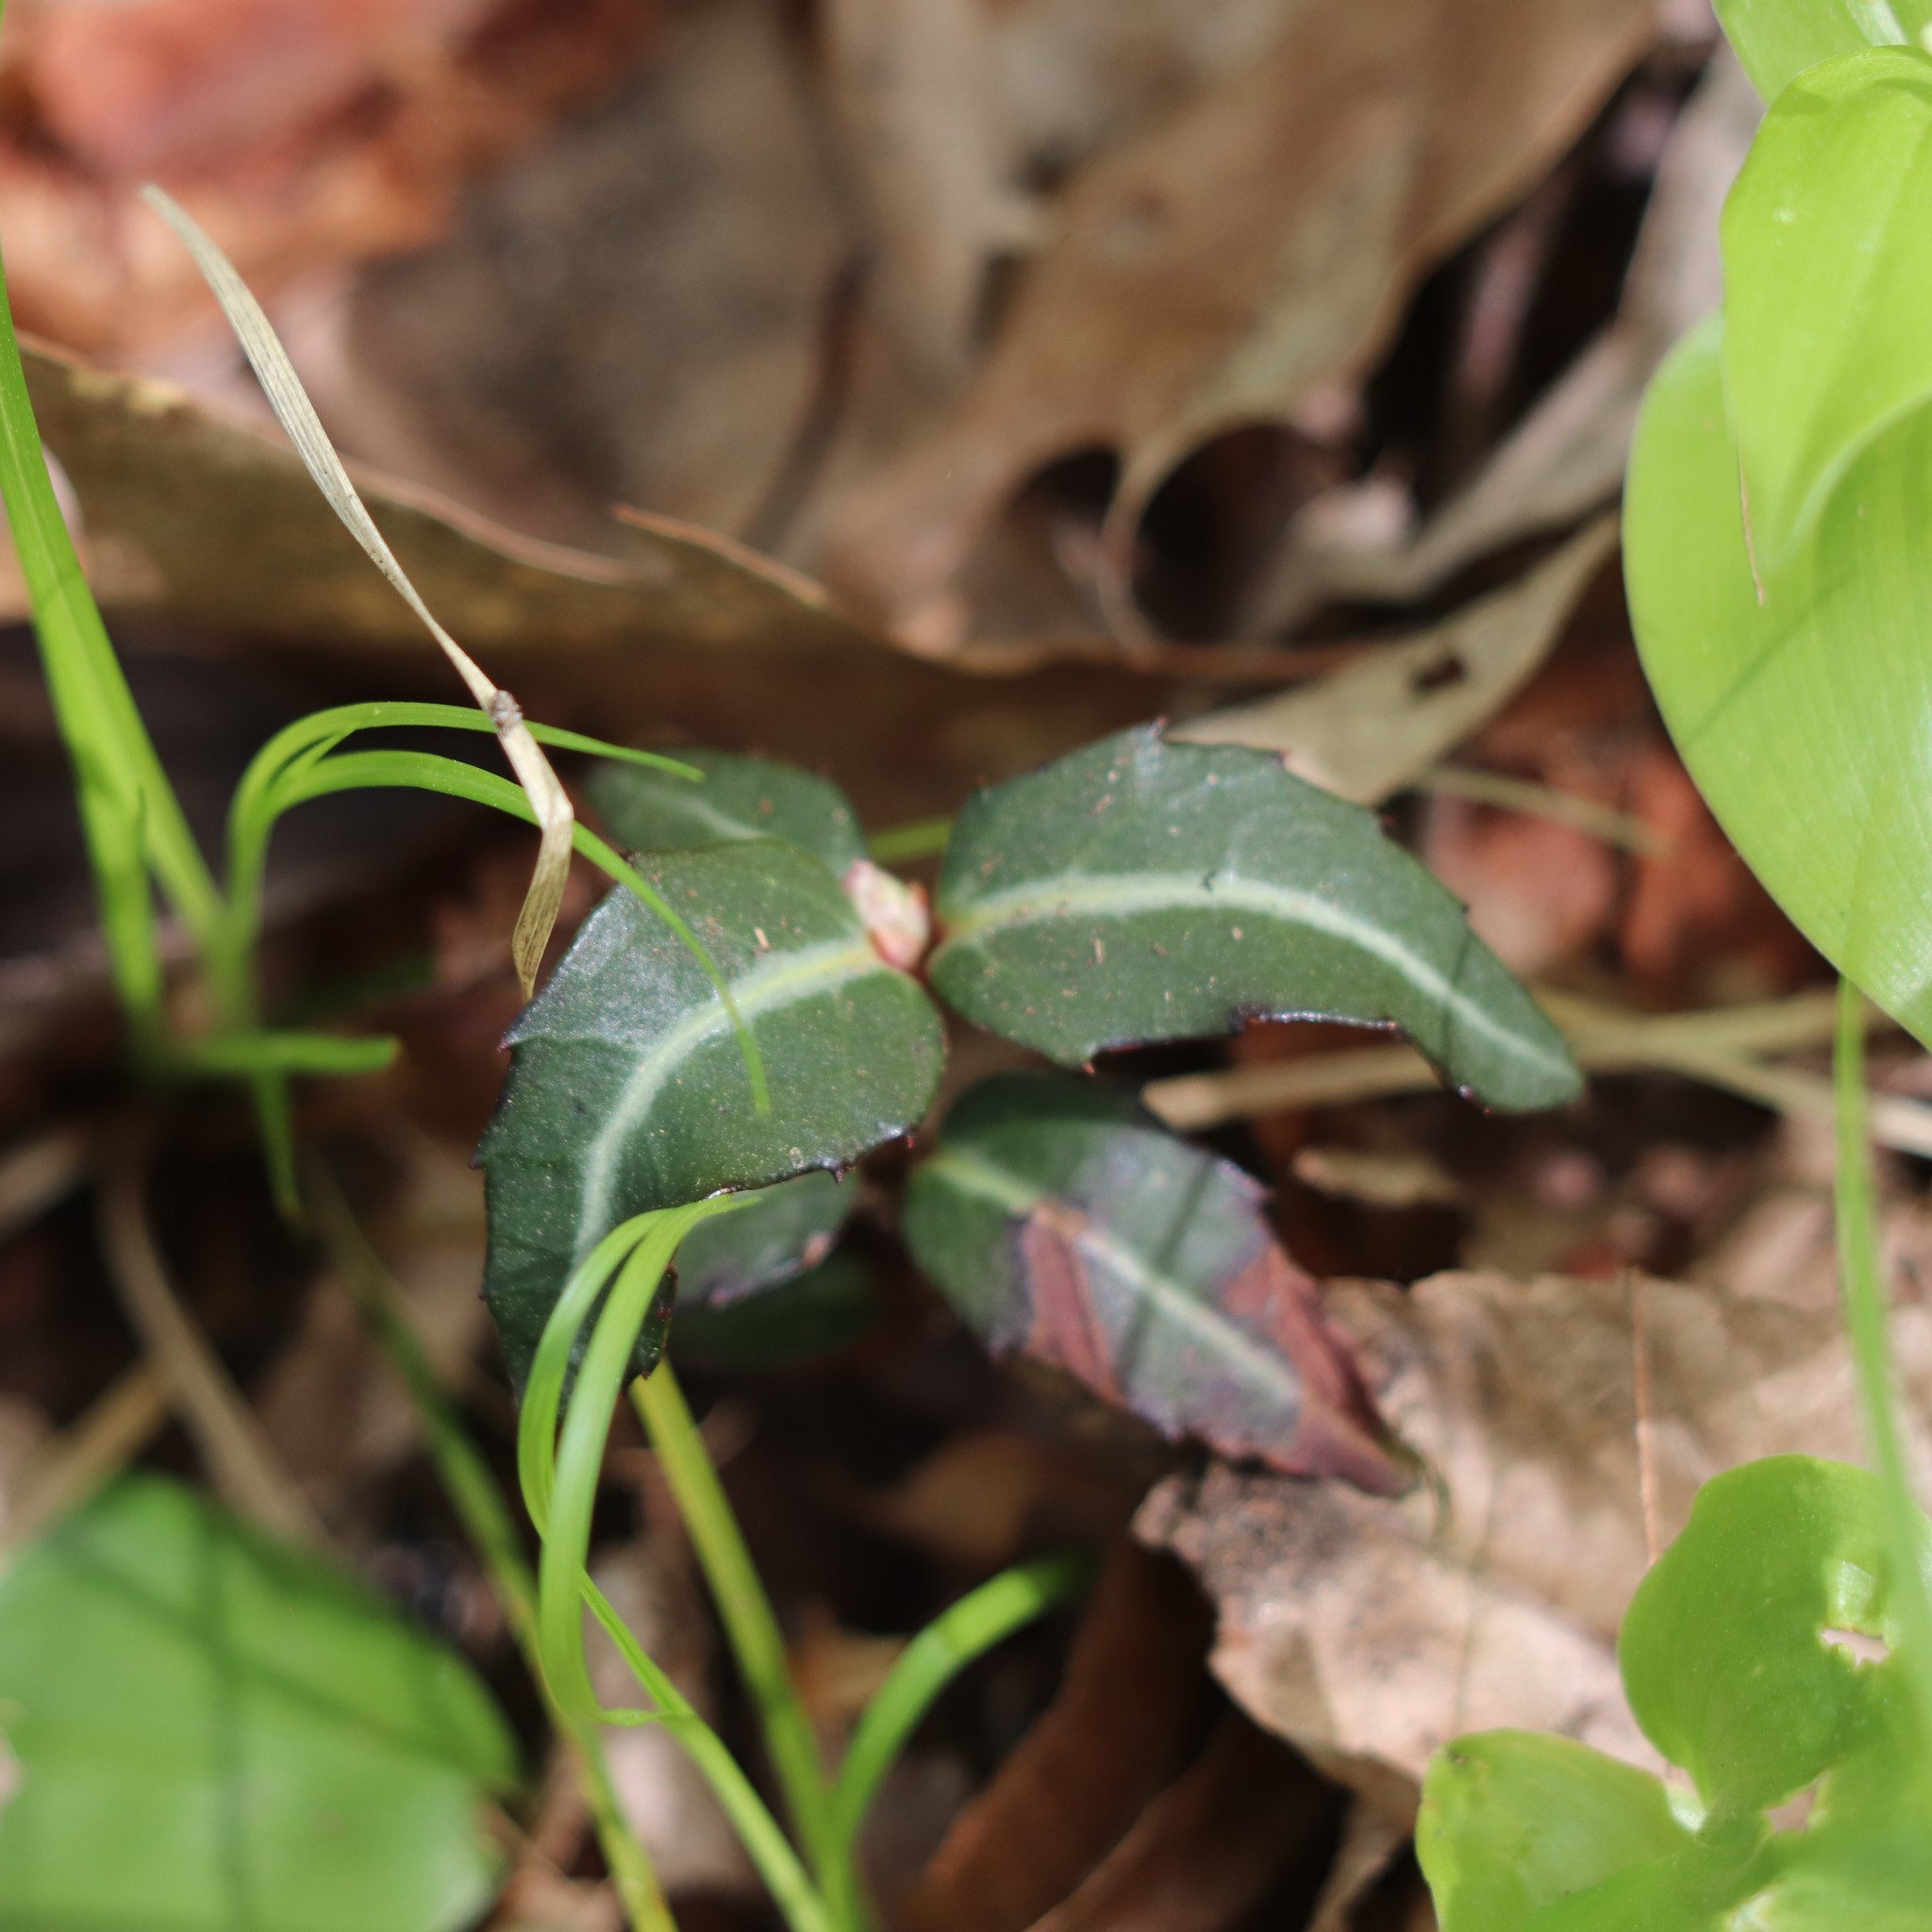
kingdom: Plantae
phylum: Tracheophyta
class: Magnoliopsida
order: Ericales
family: Ericaceae
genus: Chimaphila
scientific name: Chimaphila maculata
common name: Spotted pipsissewa
